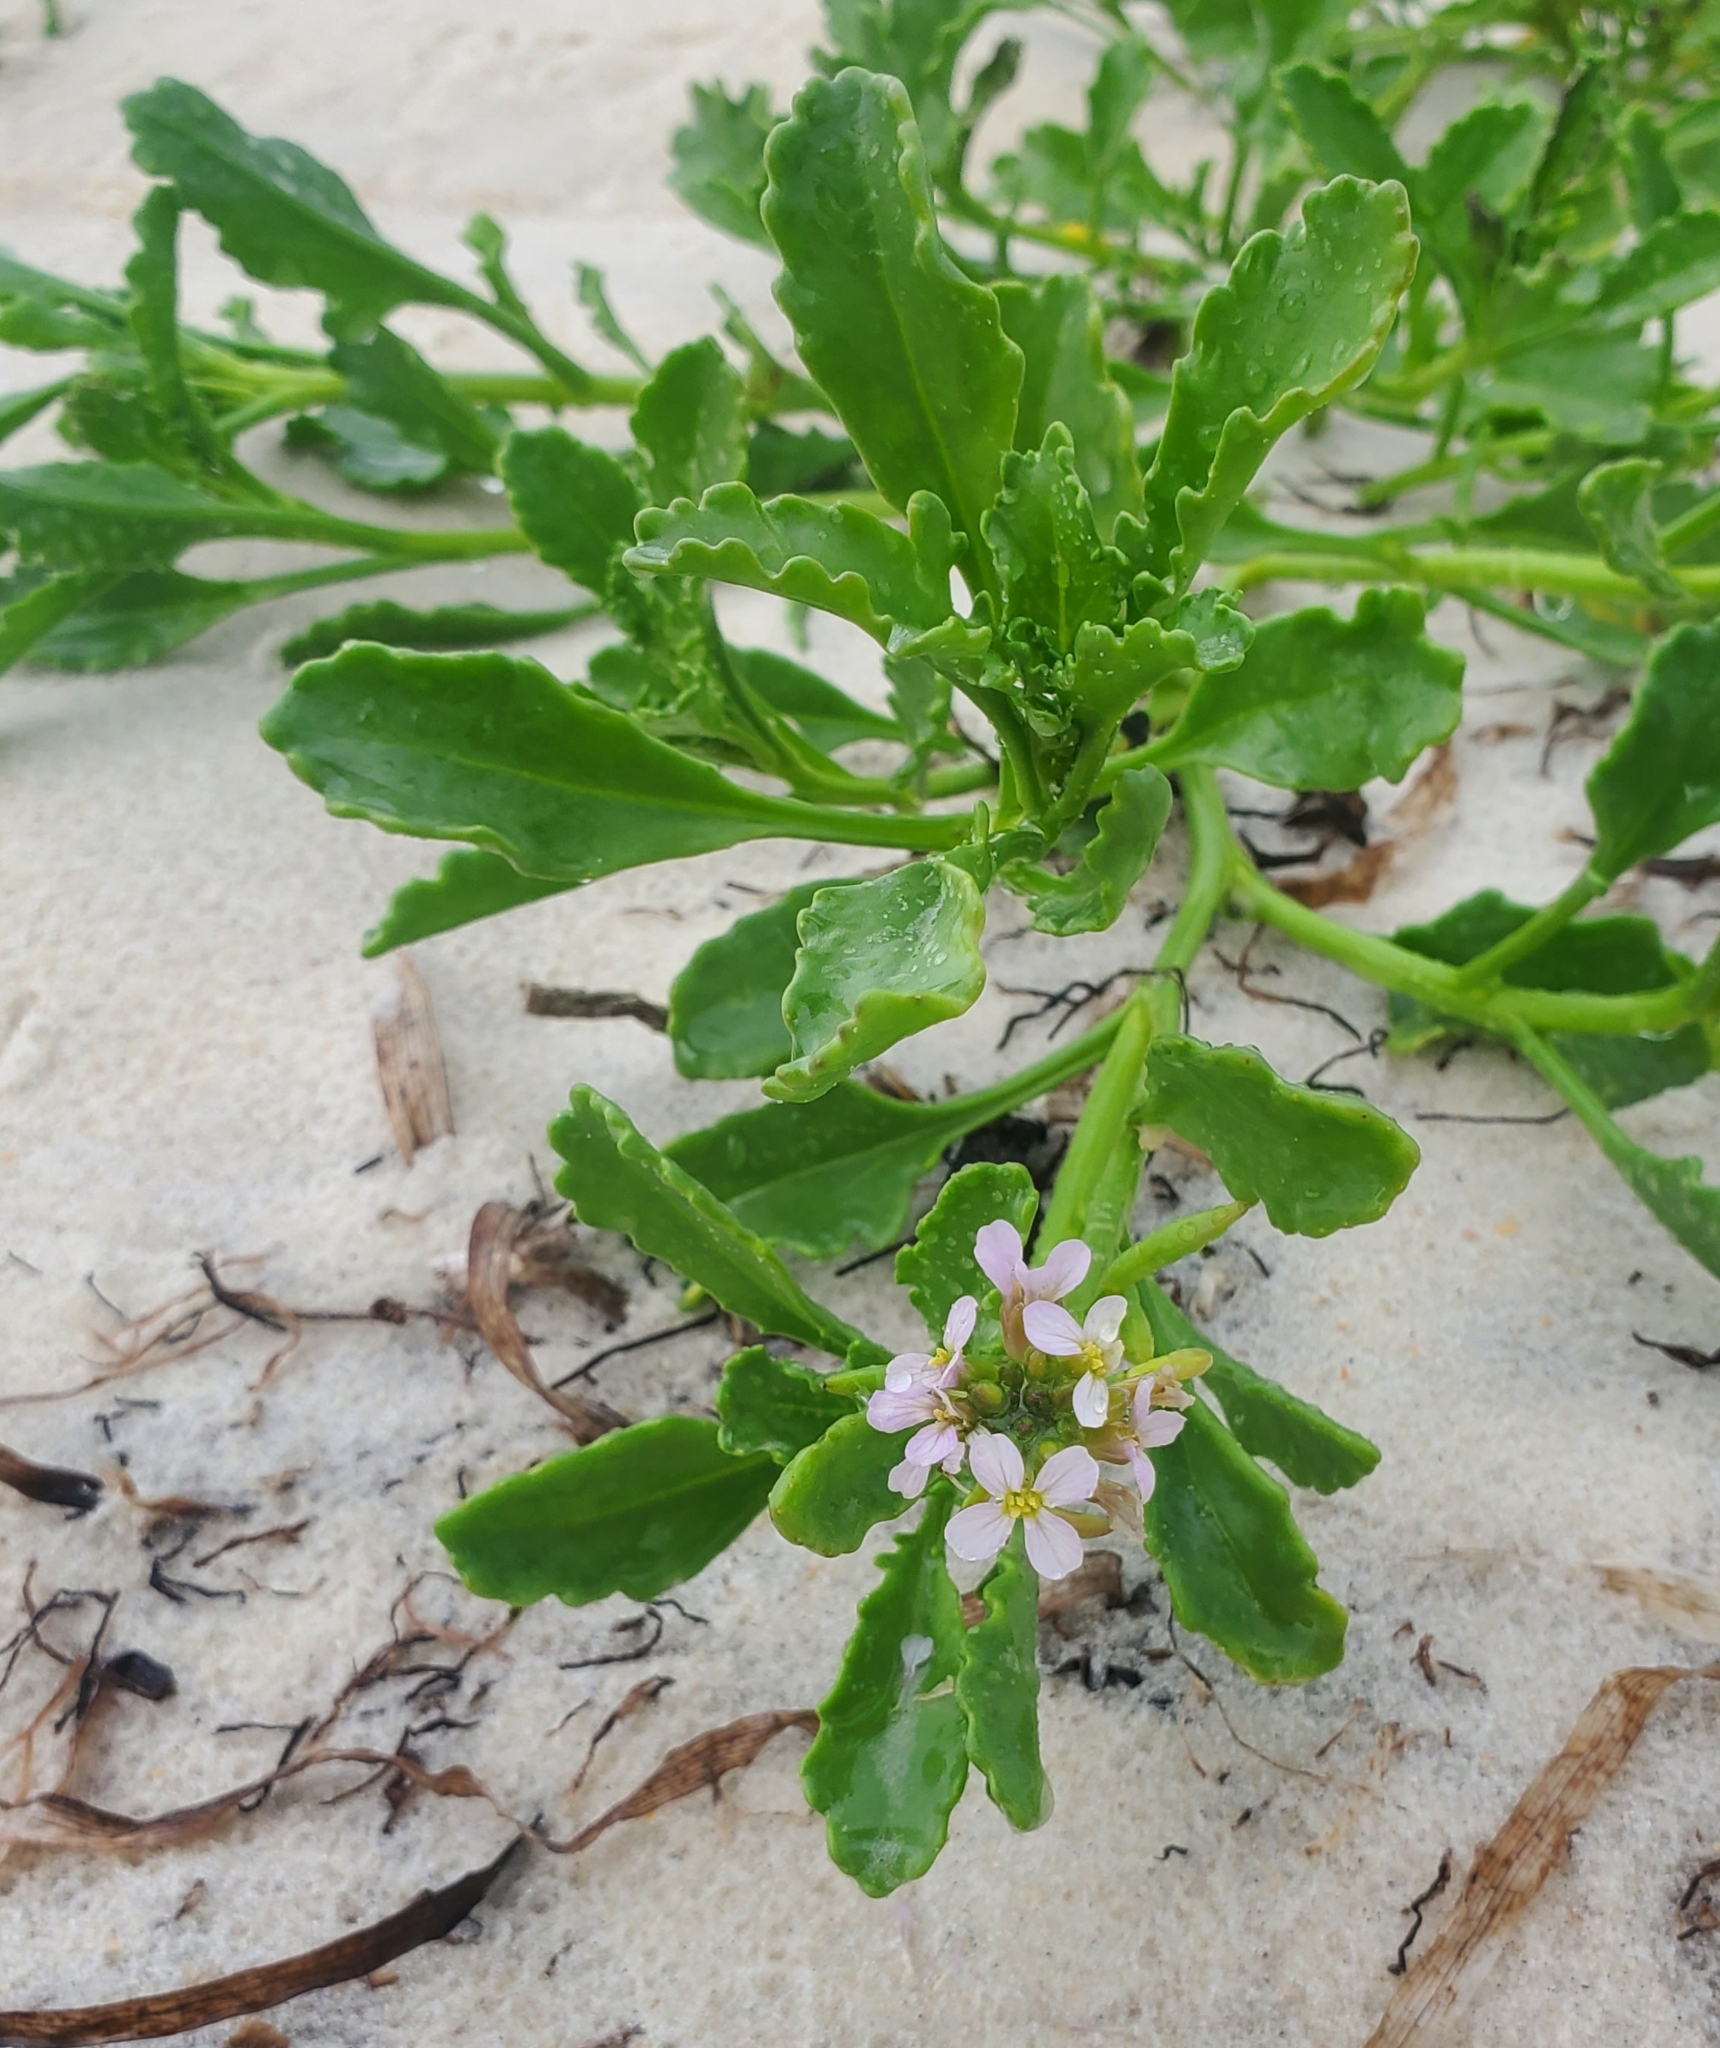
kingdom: Plantae
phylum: Tracheophyta
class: Magnoliopsida
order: Brassicales
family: Brassicaceae
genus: Cakile
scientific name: Cakile lanceolata
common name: Sea rocket
